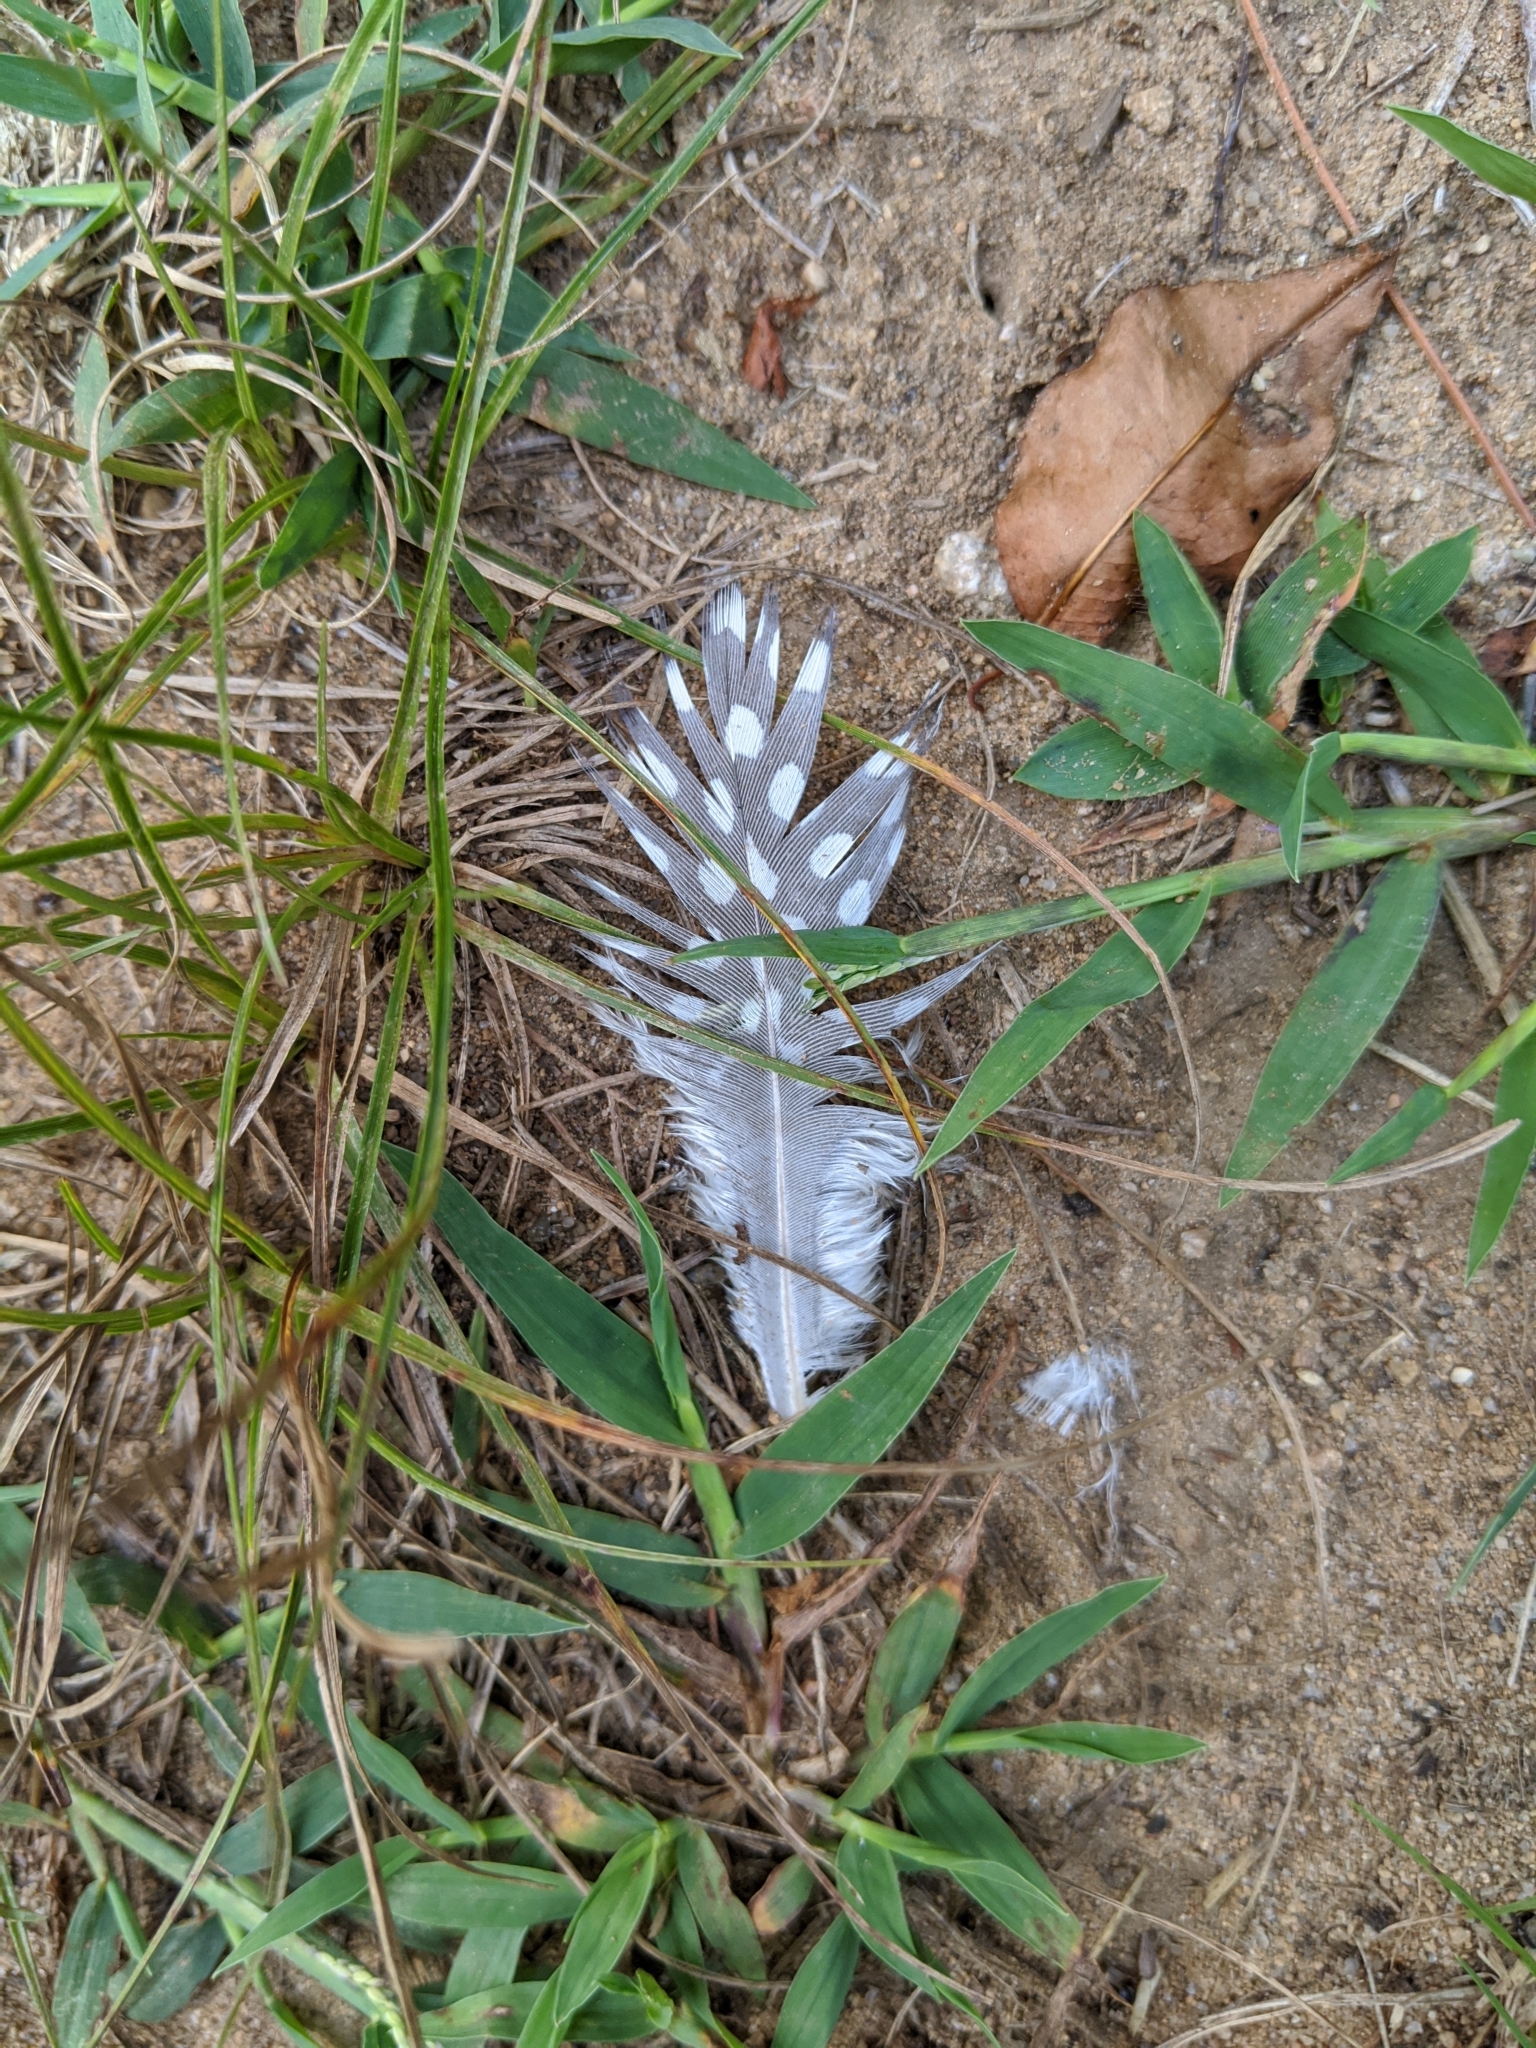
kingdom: Animalia
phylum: Chordata
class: Aves
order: Galliformes
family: Numididae
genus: Numida
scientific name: Numida meleagris
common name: Helmeted guineafowl
